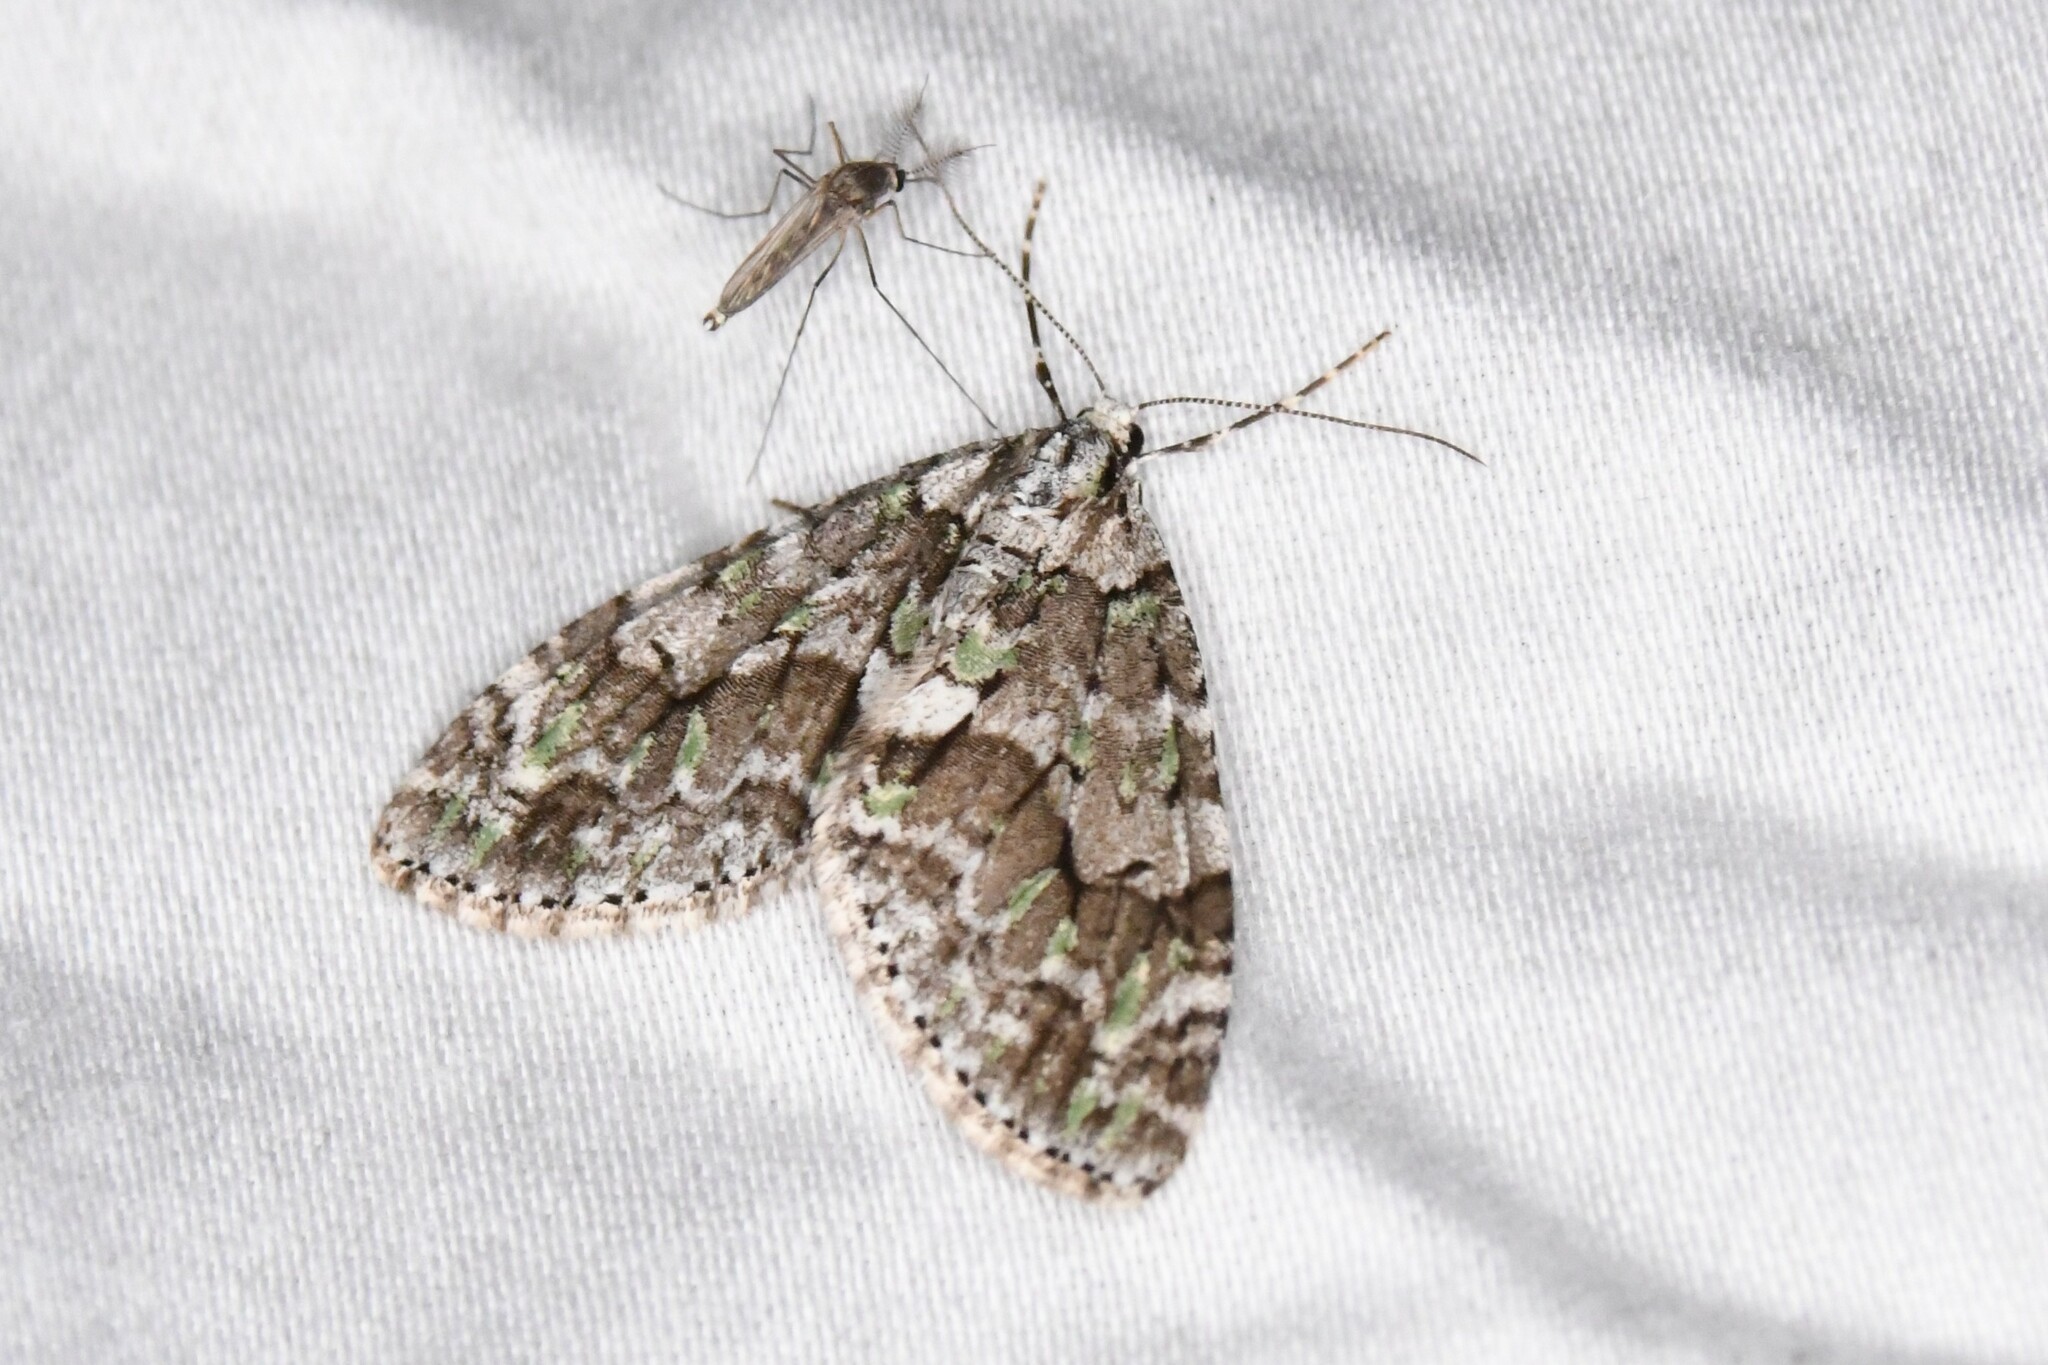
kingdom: Animalia
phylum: Arthropoda
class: Insecta
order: Lepidoptera
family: Geometridae
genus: Cladara
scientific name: Cladara limitaria
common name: Mottled gray carpet
